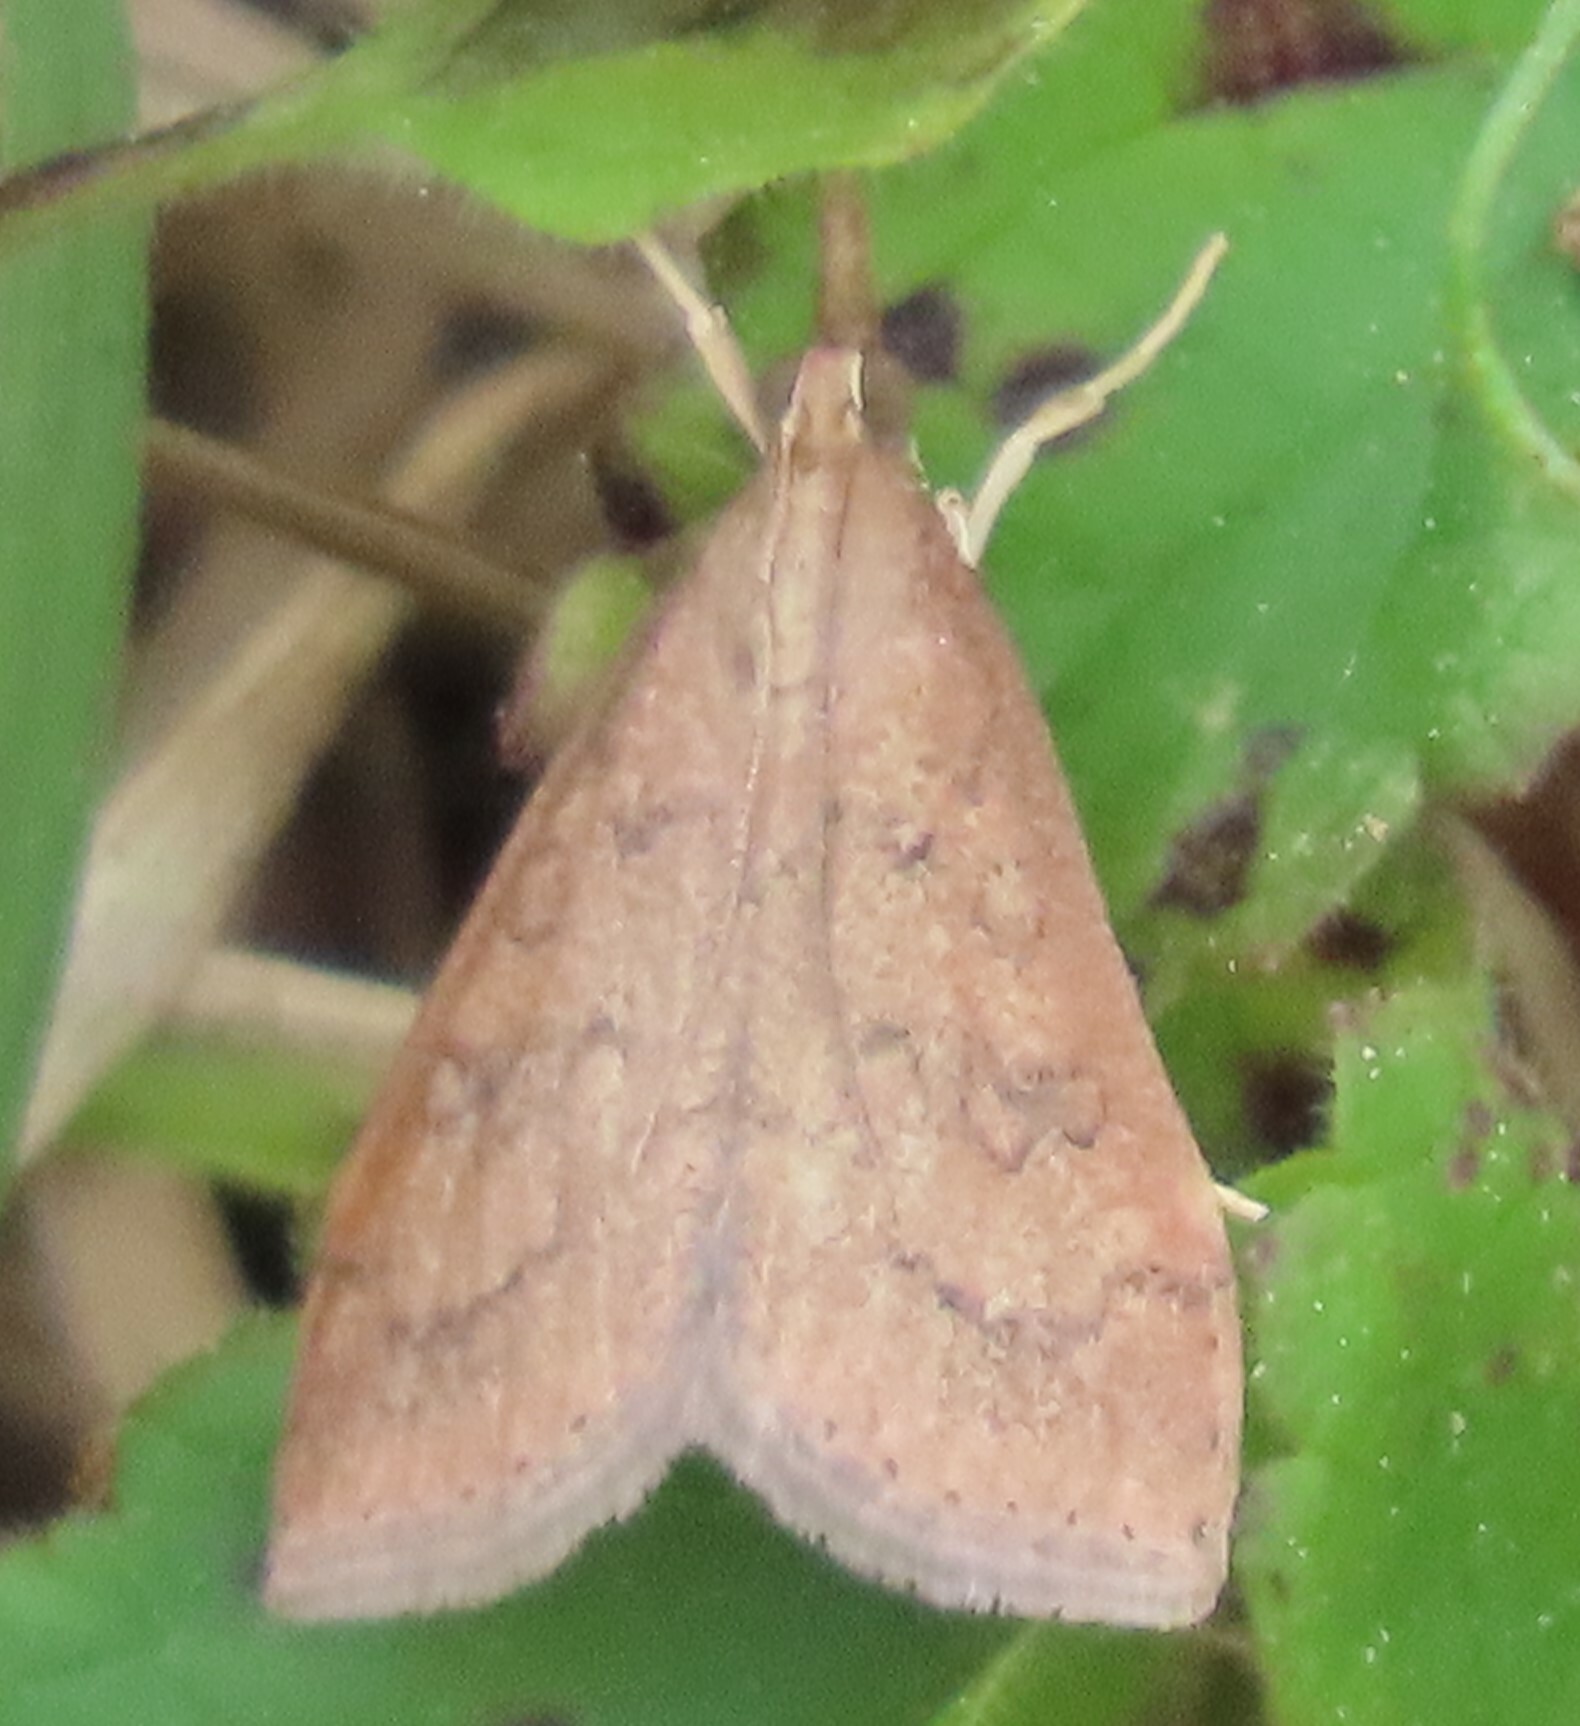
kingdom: Animalia
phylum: Arthropoda
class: Insecta
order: Lepidoptera
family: Crambidae
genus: Udea
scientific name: Udea rubigalis
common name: Celery leaftier moth
